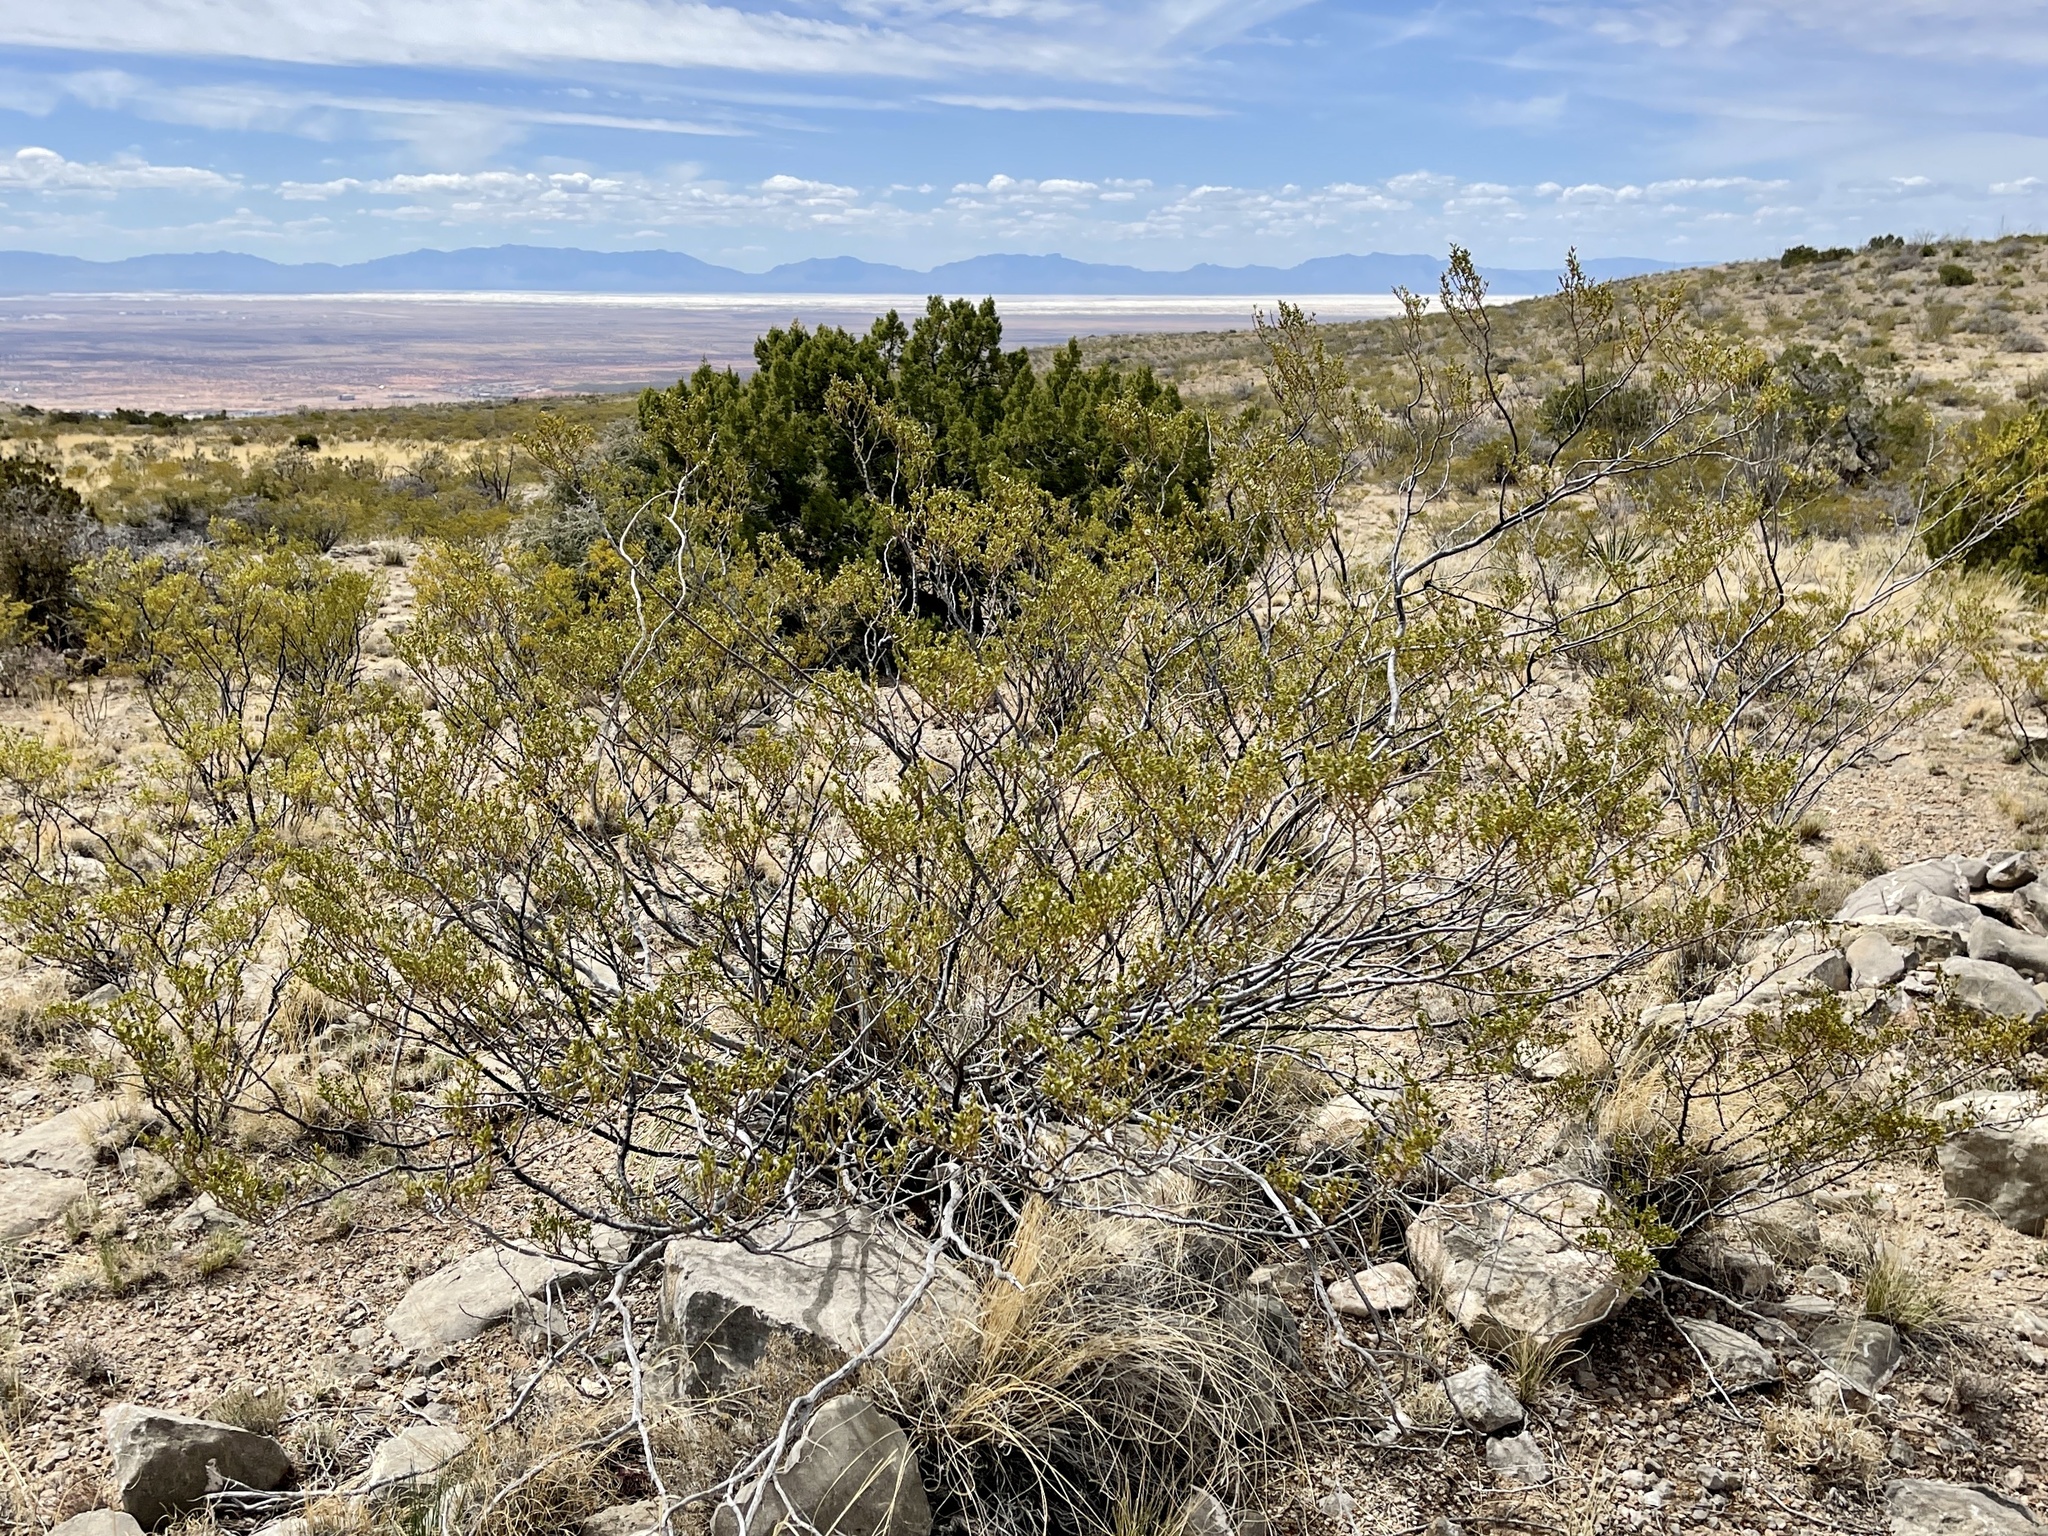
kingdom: Plantae
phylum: Tracheophyta
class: Magnoliopsida
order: Zygophyllales
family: Zygophyllaceae
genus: Larrea
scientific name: Larrea tridentata
